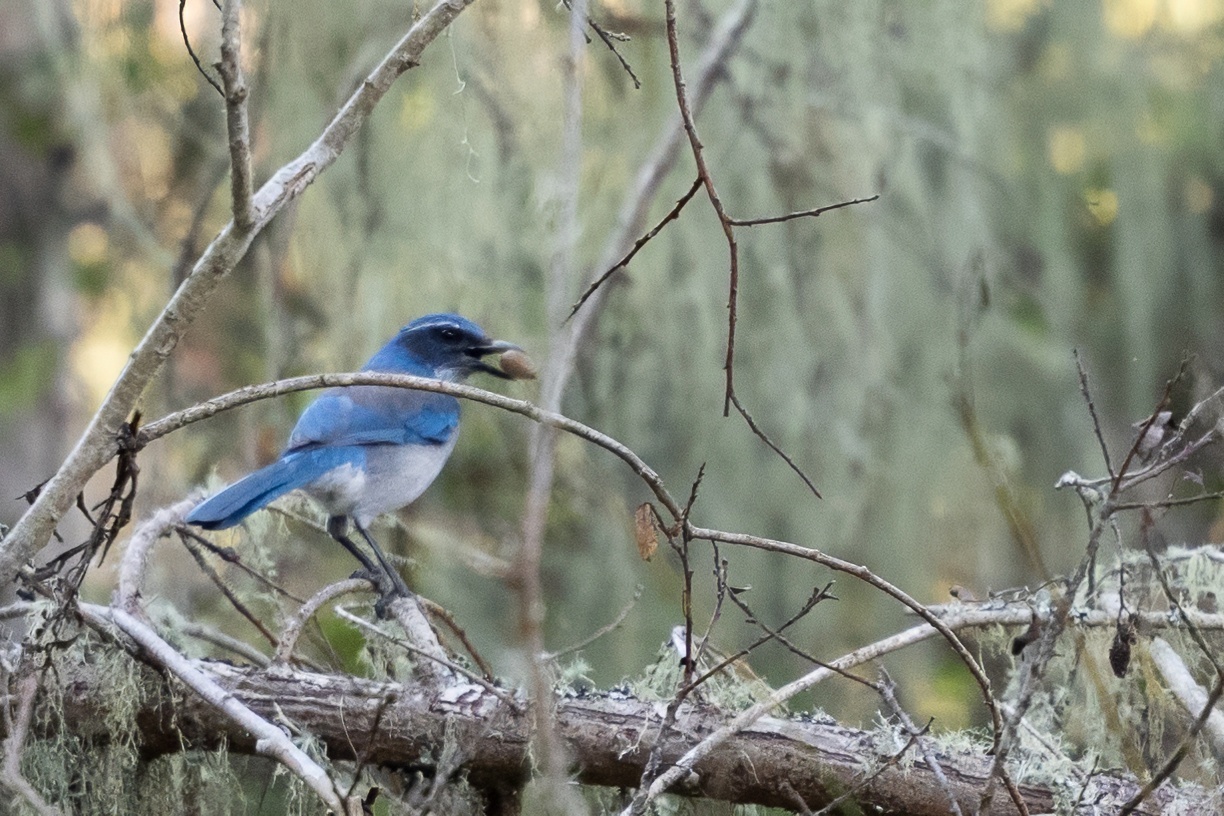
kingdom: Animalia
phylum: Chordata
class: Aves
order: Passeriformes
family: Corvidae
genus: Aphelocoma
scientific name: Aphelocoma californica
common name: California scrub-jay
